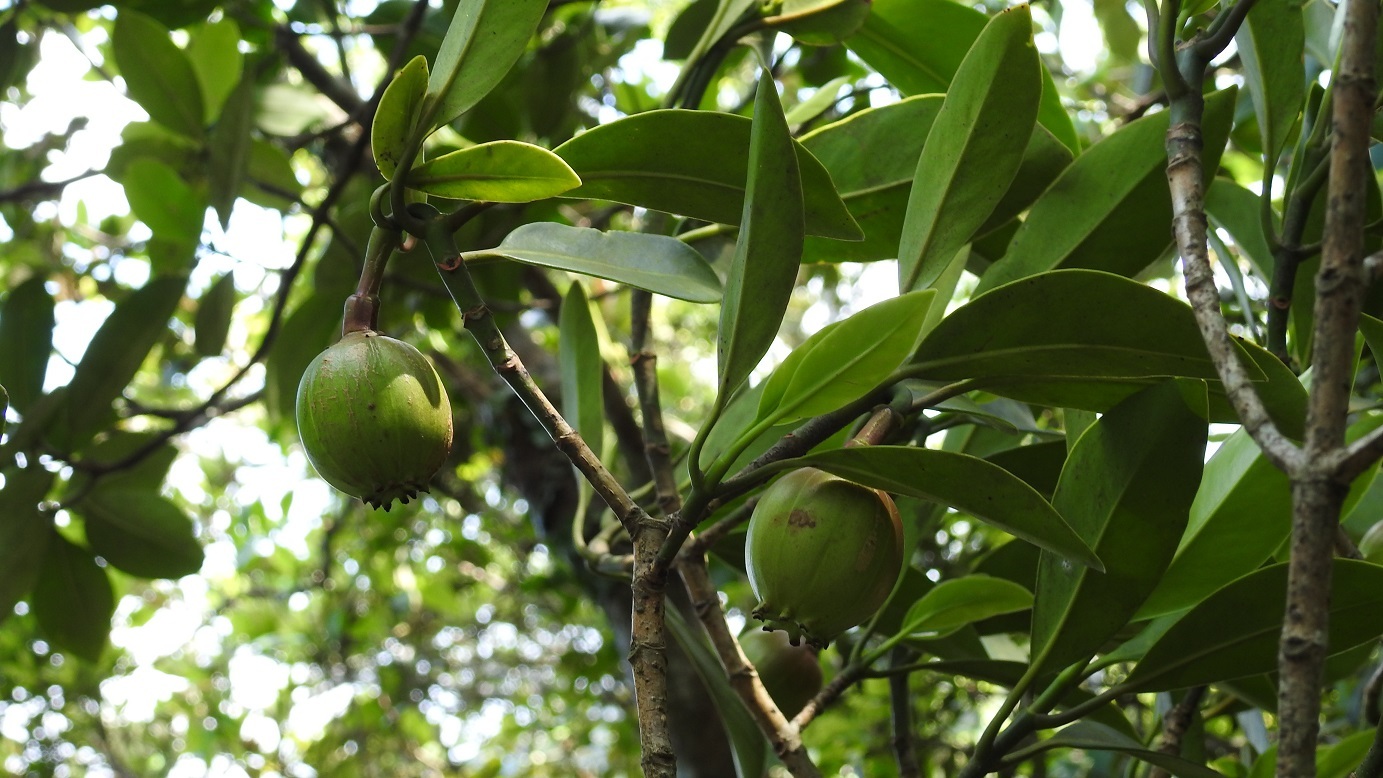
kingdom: Plantae
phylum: Tracheophyta
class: Magnoliopsida
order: Malpighiales
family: Clusiaceae
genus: Clusia
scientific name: Clusia minor
